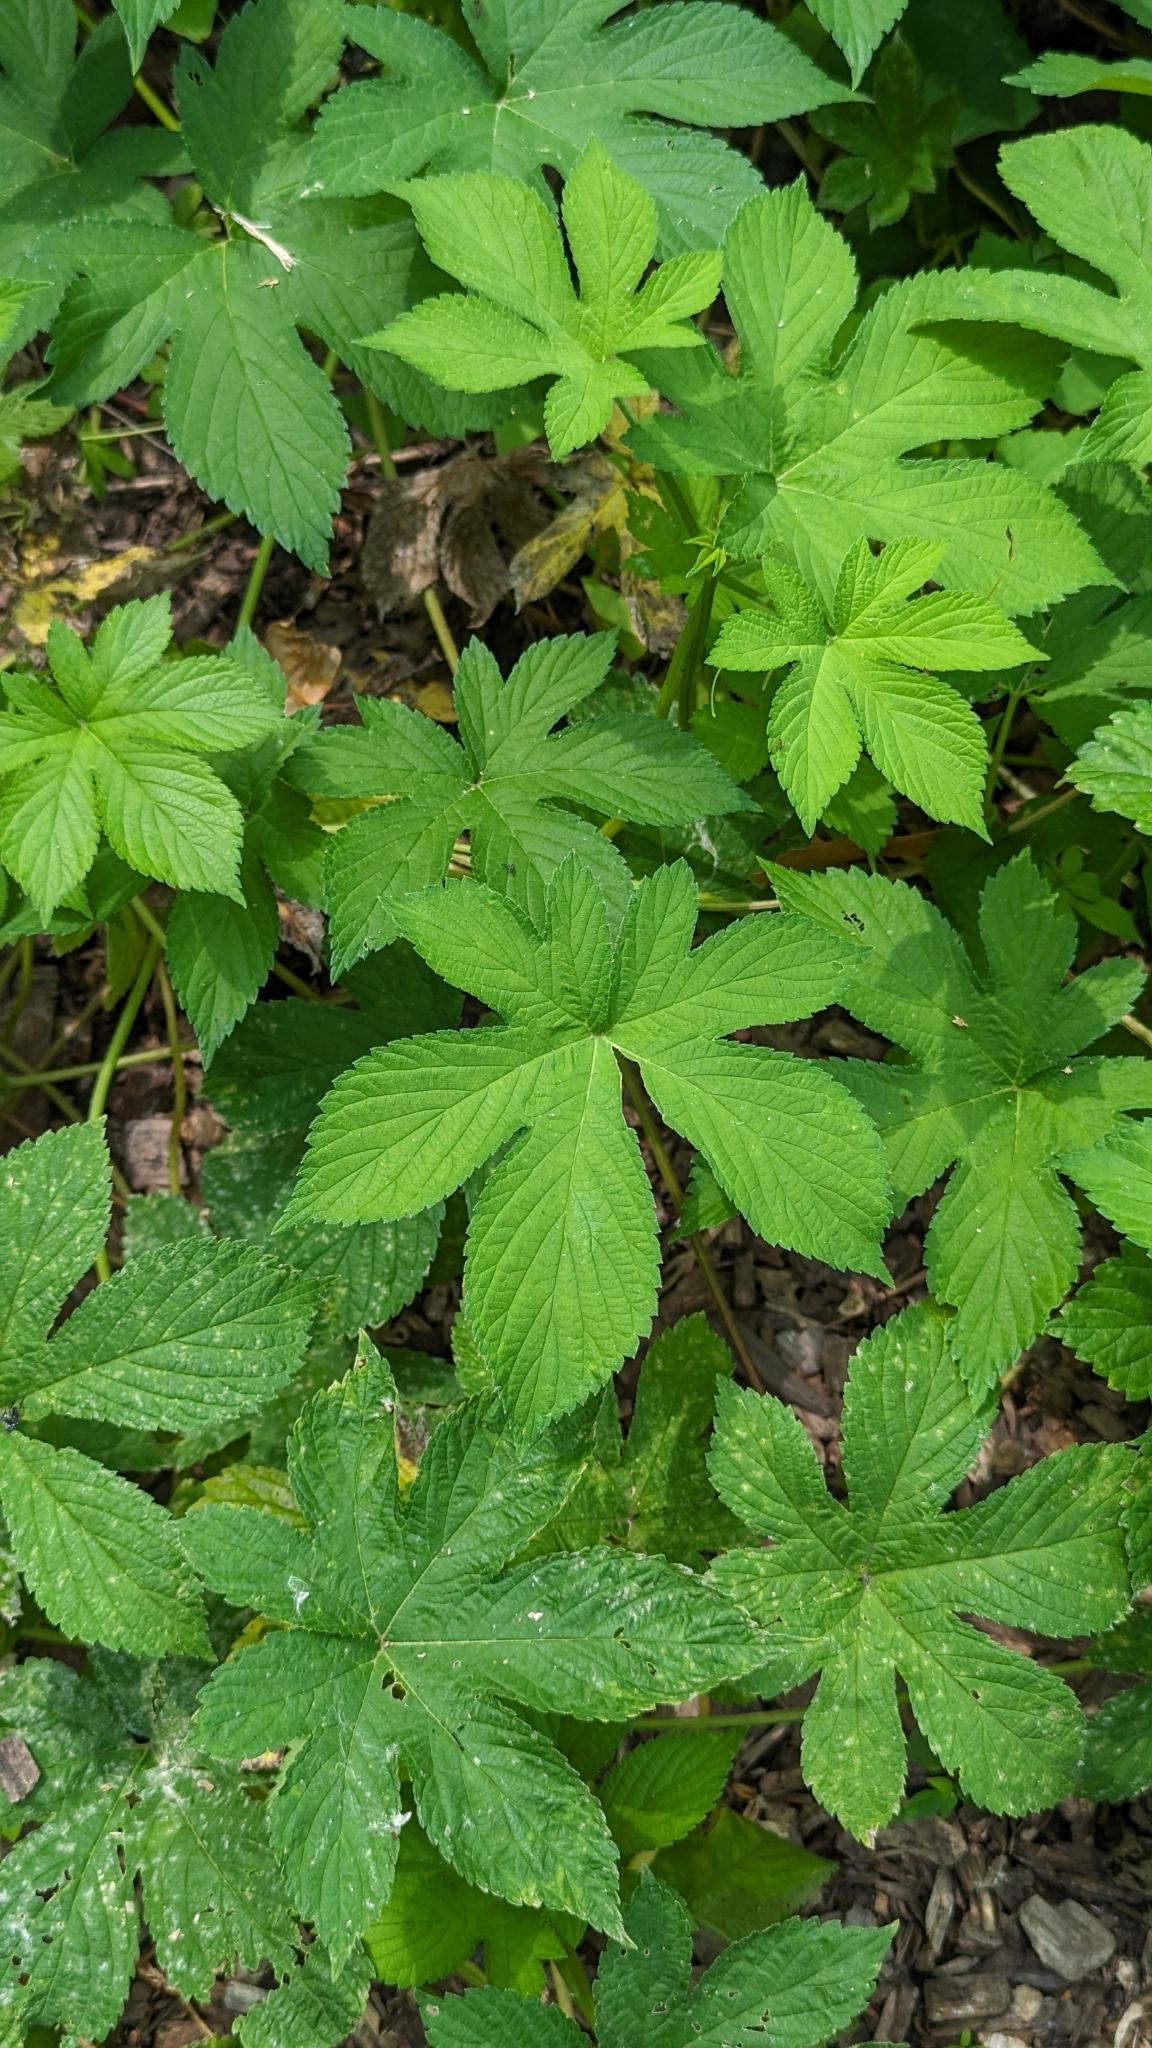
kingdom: Plantae
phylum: Tracheophyta
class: Magnoliopsida
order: Rosales
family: Cannabaceae
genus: Humulus
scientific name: Humulus scandens
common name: Japanese hop
